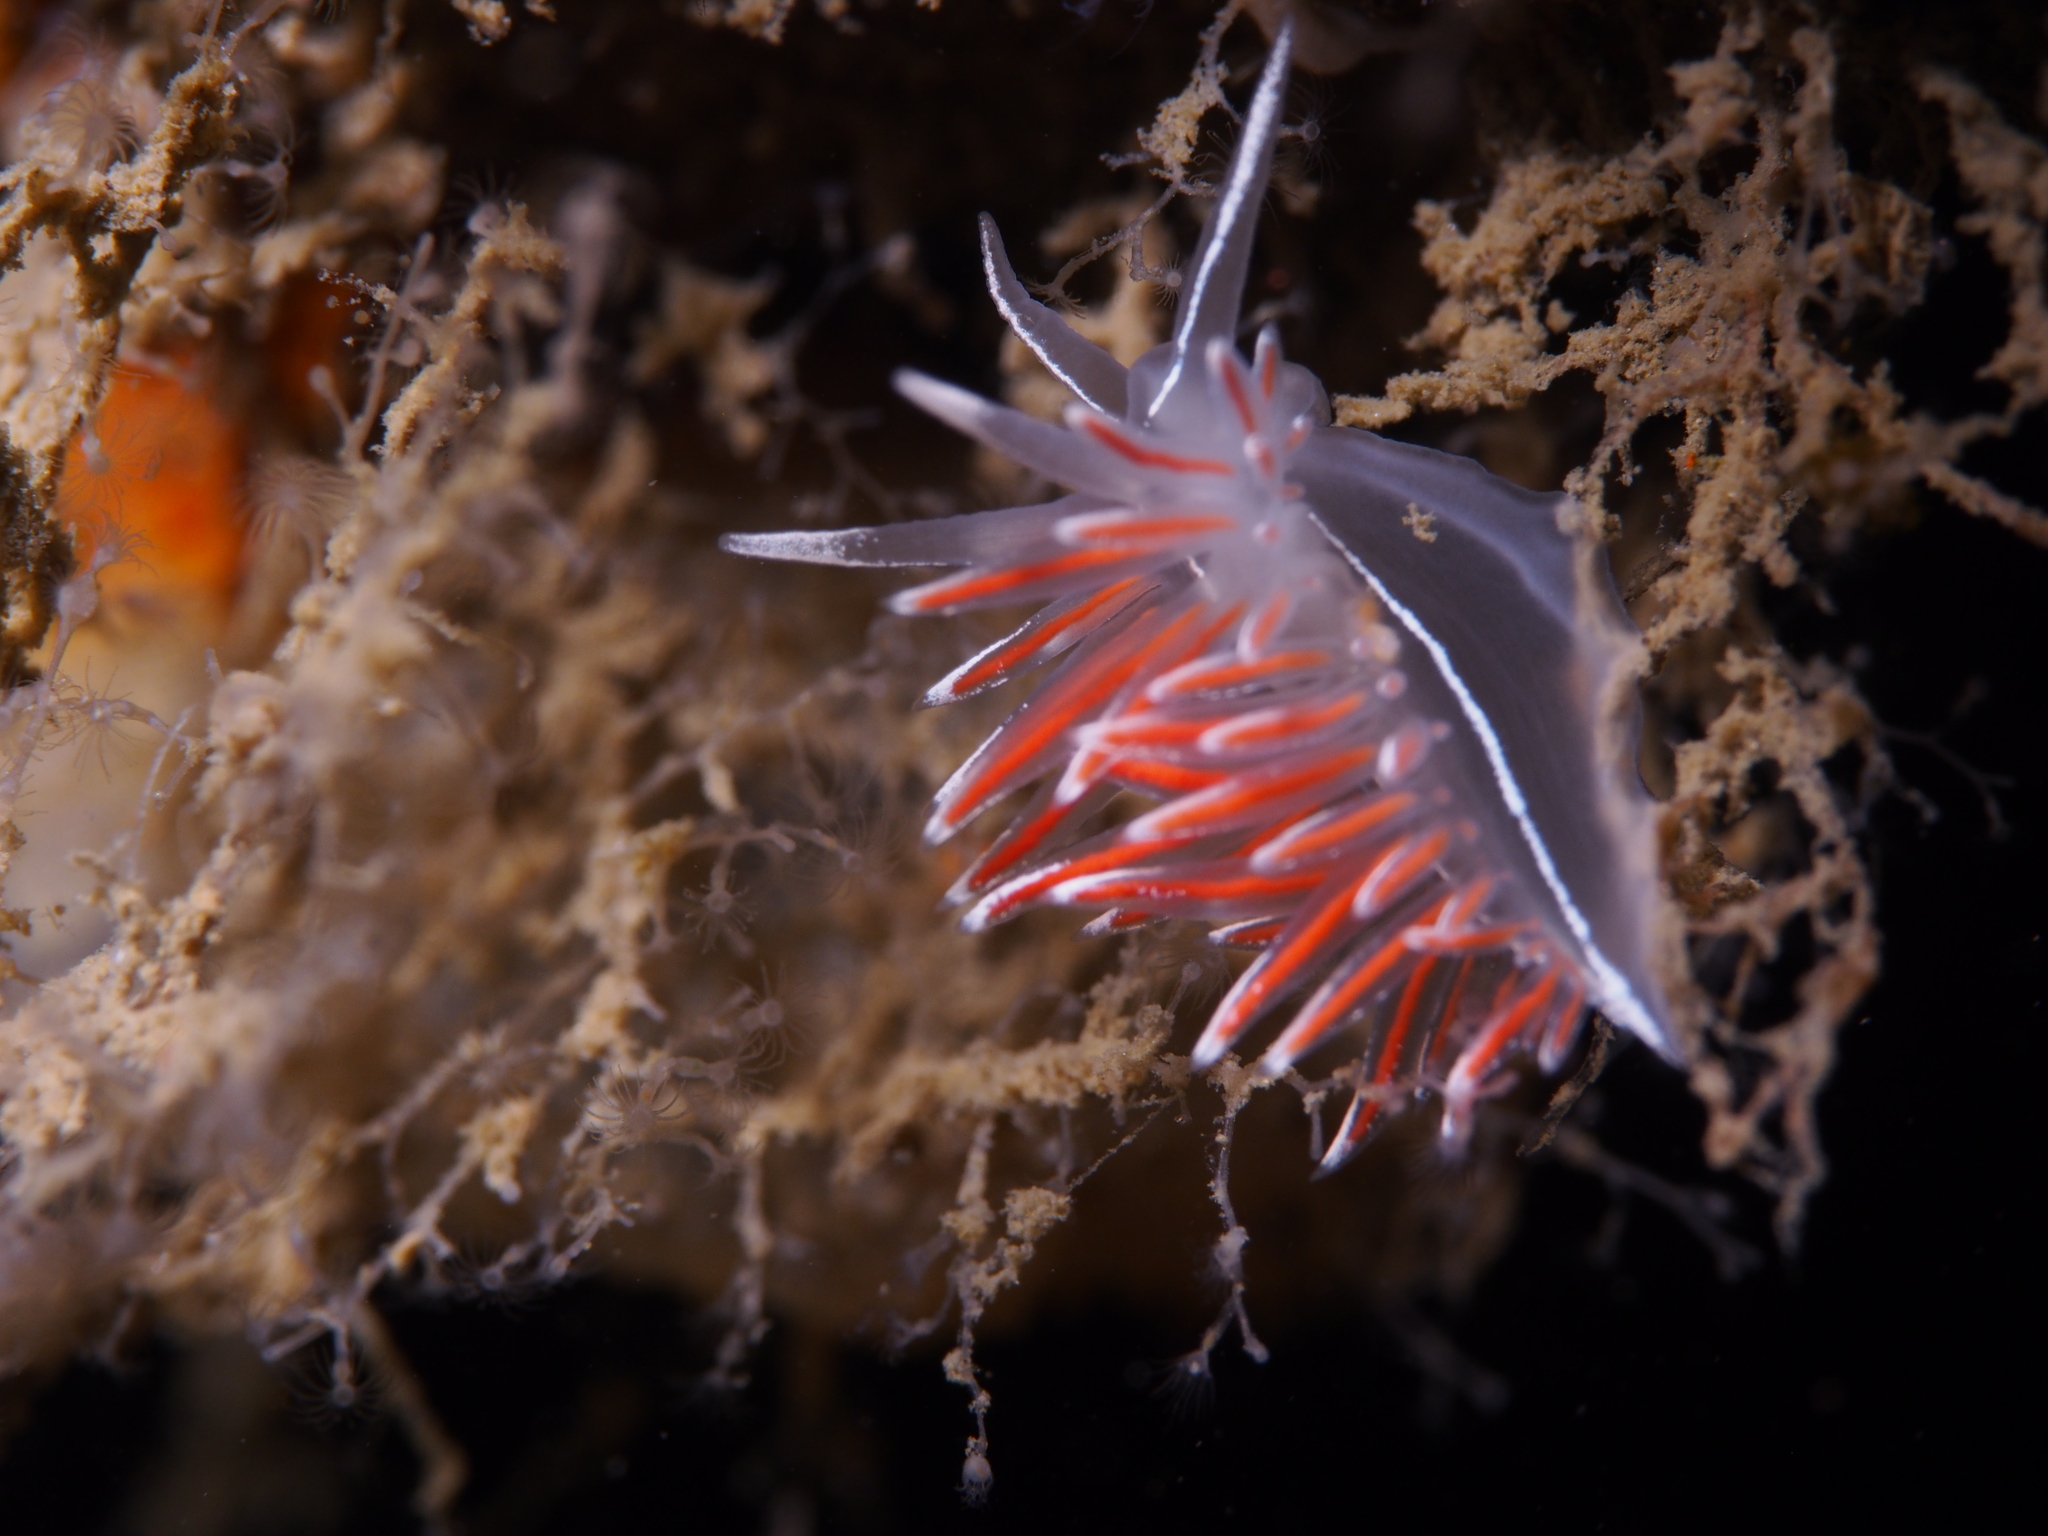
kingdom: Animalia
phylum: Mollusca
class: Gastropoda
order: Nudibranchia
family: Coryphellidae
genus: Coryphella
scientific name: Coryphella lineata
